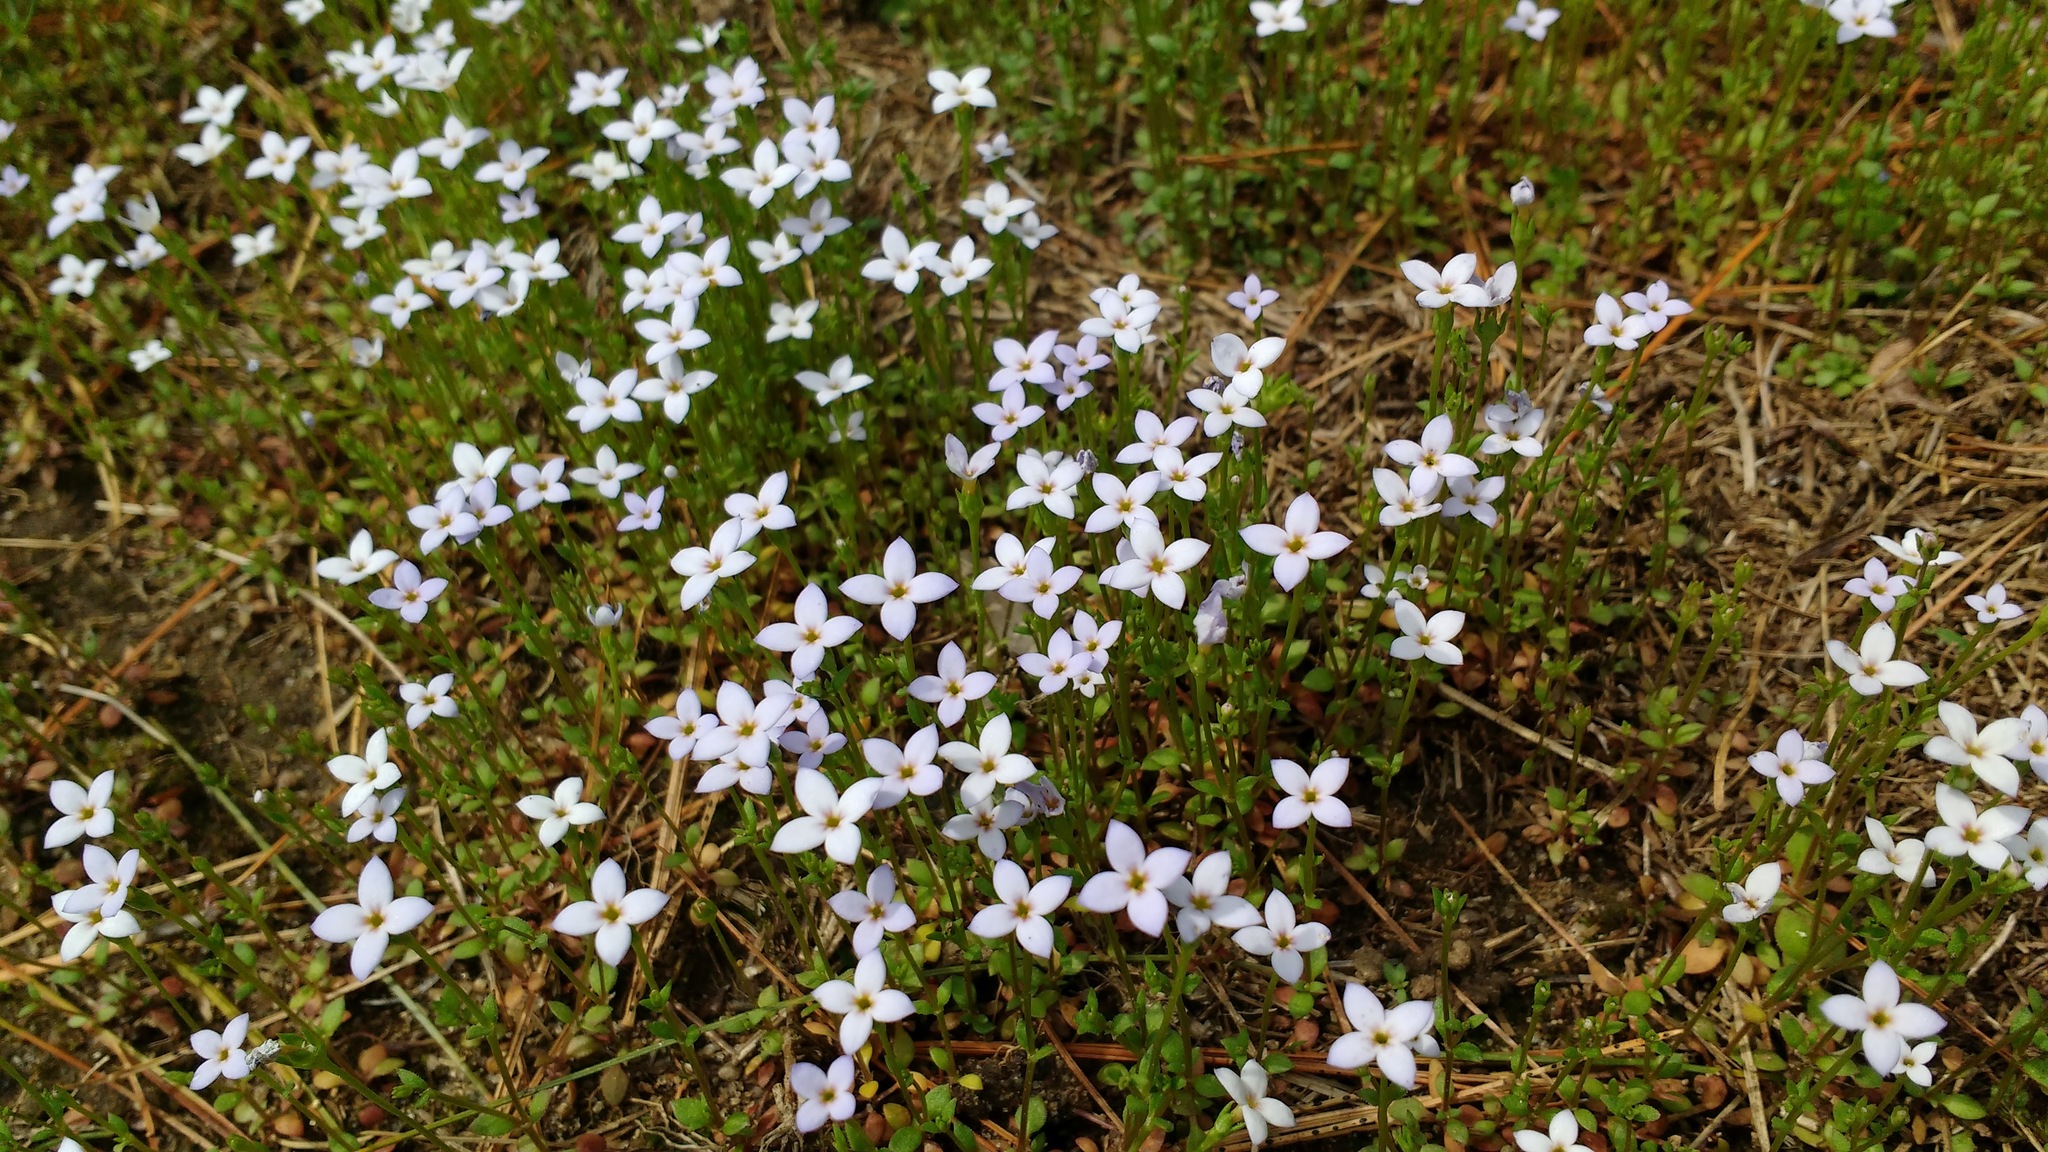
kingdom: Plantae
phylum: Tracheophyta
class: Magnoliopsida
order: Gentianales
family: Rubiaceae
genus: Houstonia
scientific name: Houstonia caerulea
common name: Bluets
